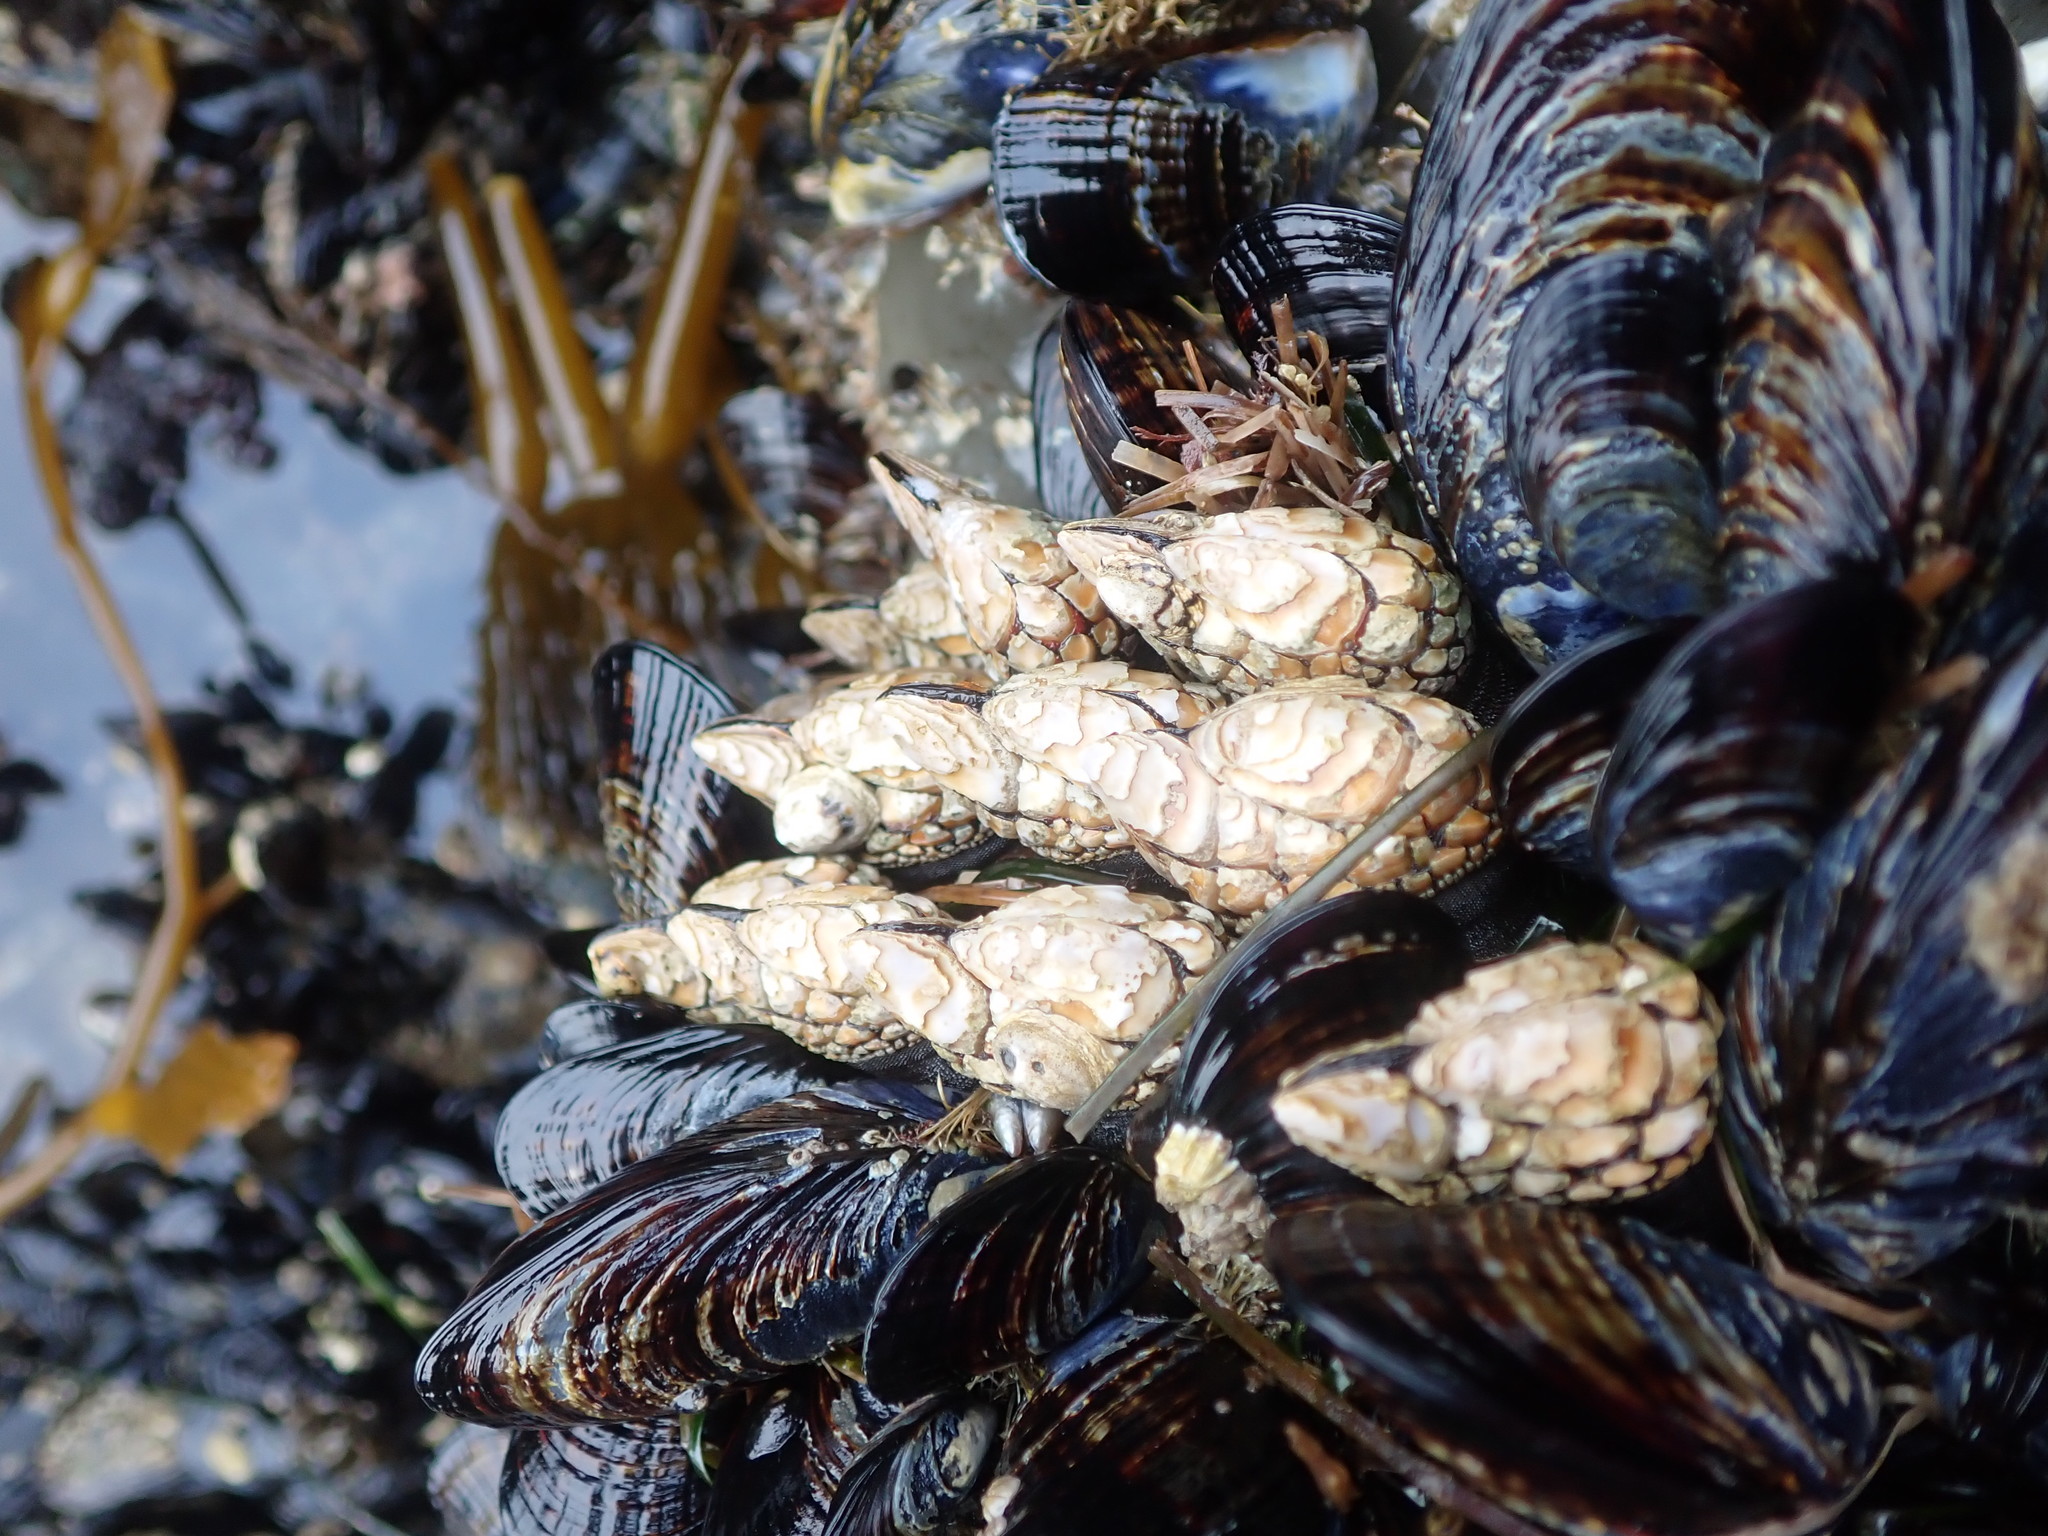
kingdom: Animalia
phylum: Arthropoda
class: Maxillopoda
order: Pedunculata
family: Pollicipedidae
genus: Pollicipes
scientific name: Pollicipes polymerus
